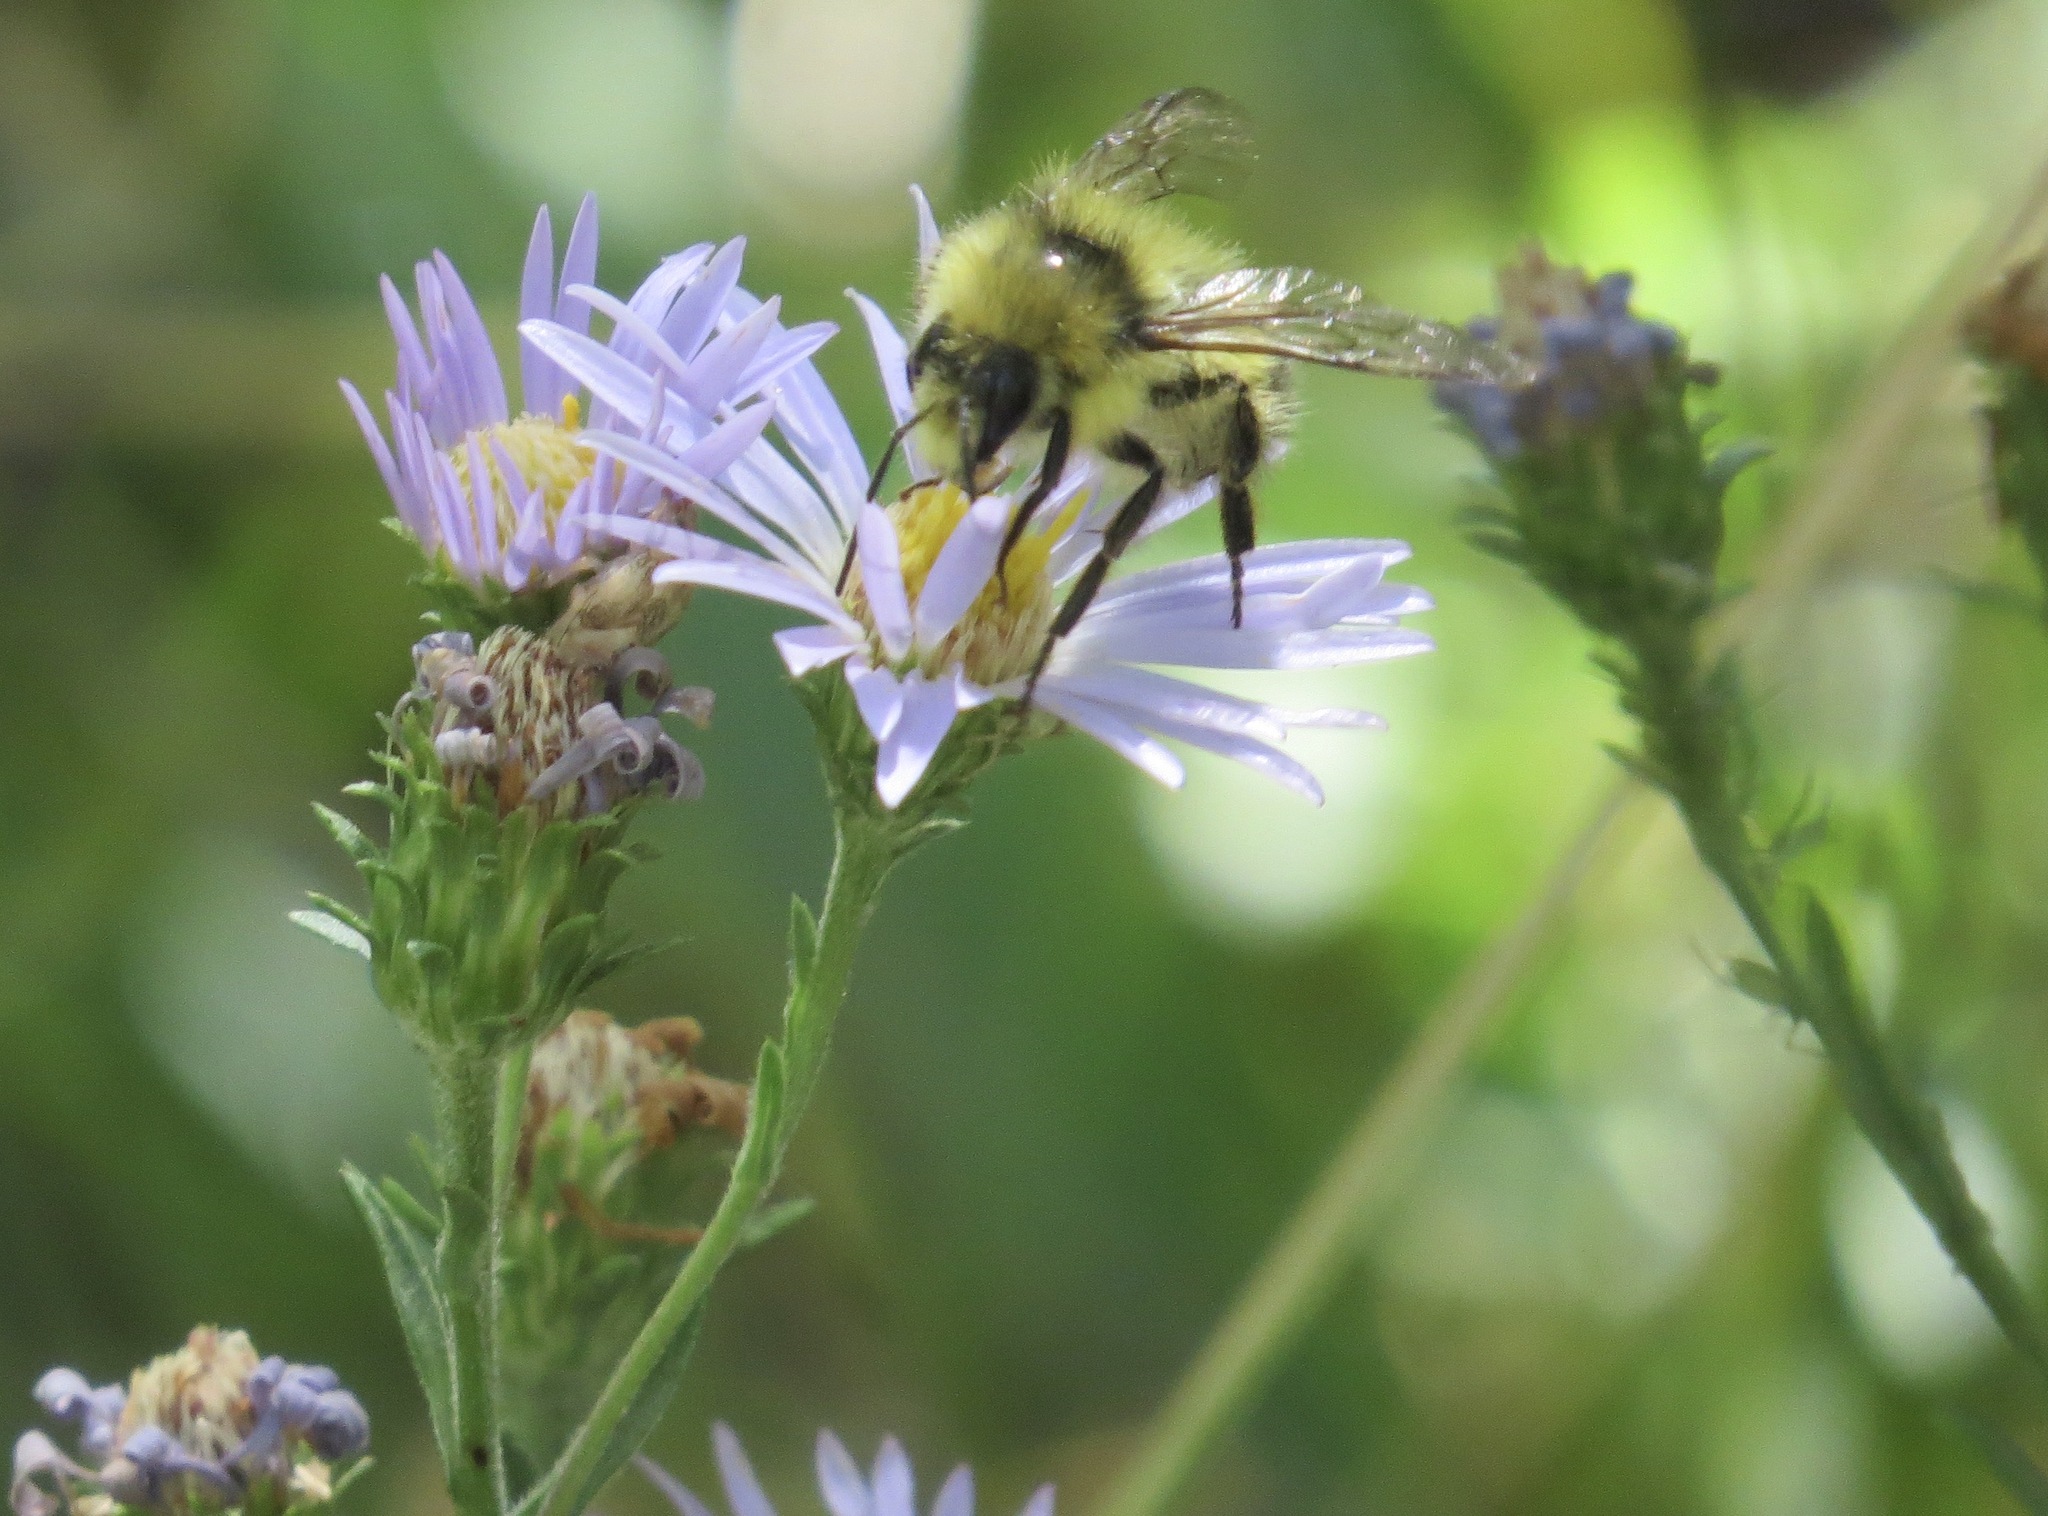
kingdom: Animalia
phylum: Arthropoda
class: Insecta
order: Hymenoptera
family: Apidae
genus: Bombus
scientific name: Bombus vandykei
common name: Van dyke bumble bee
